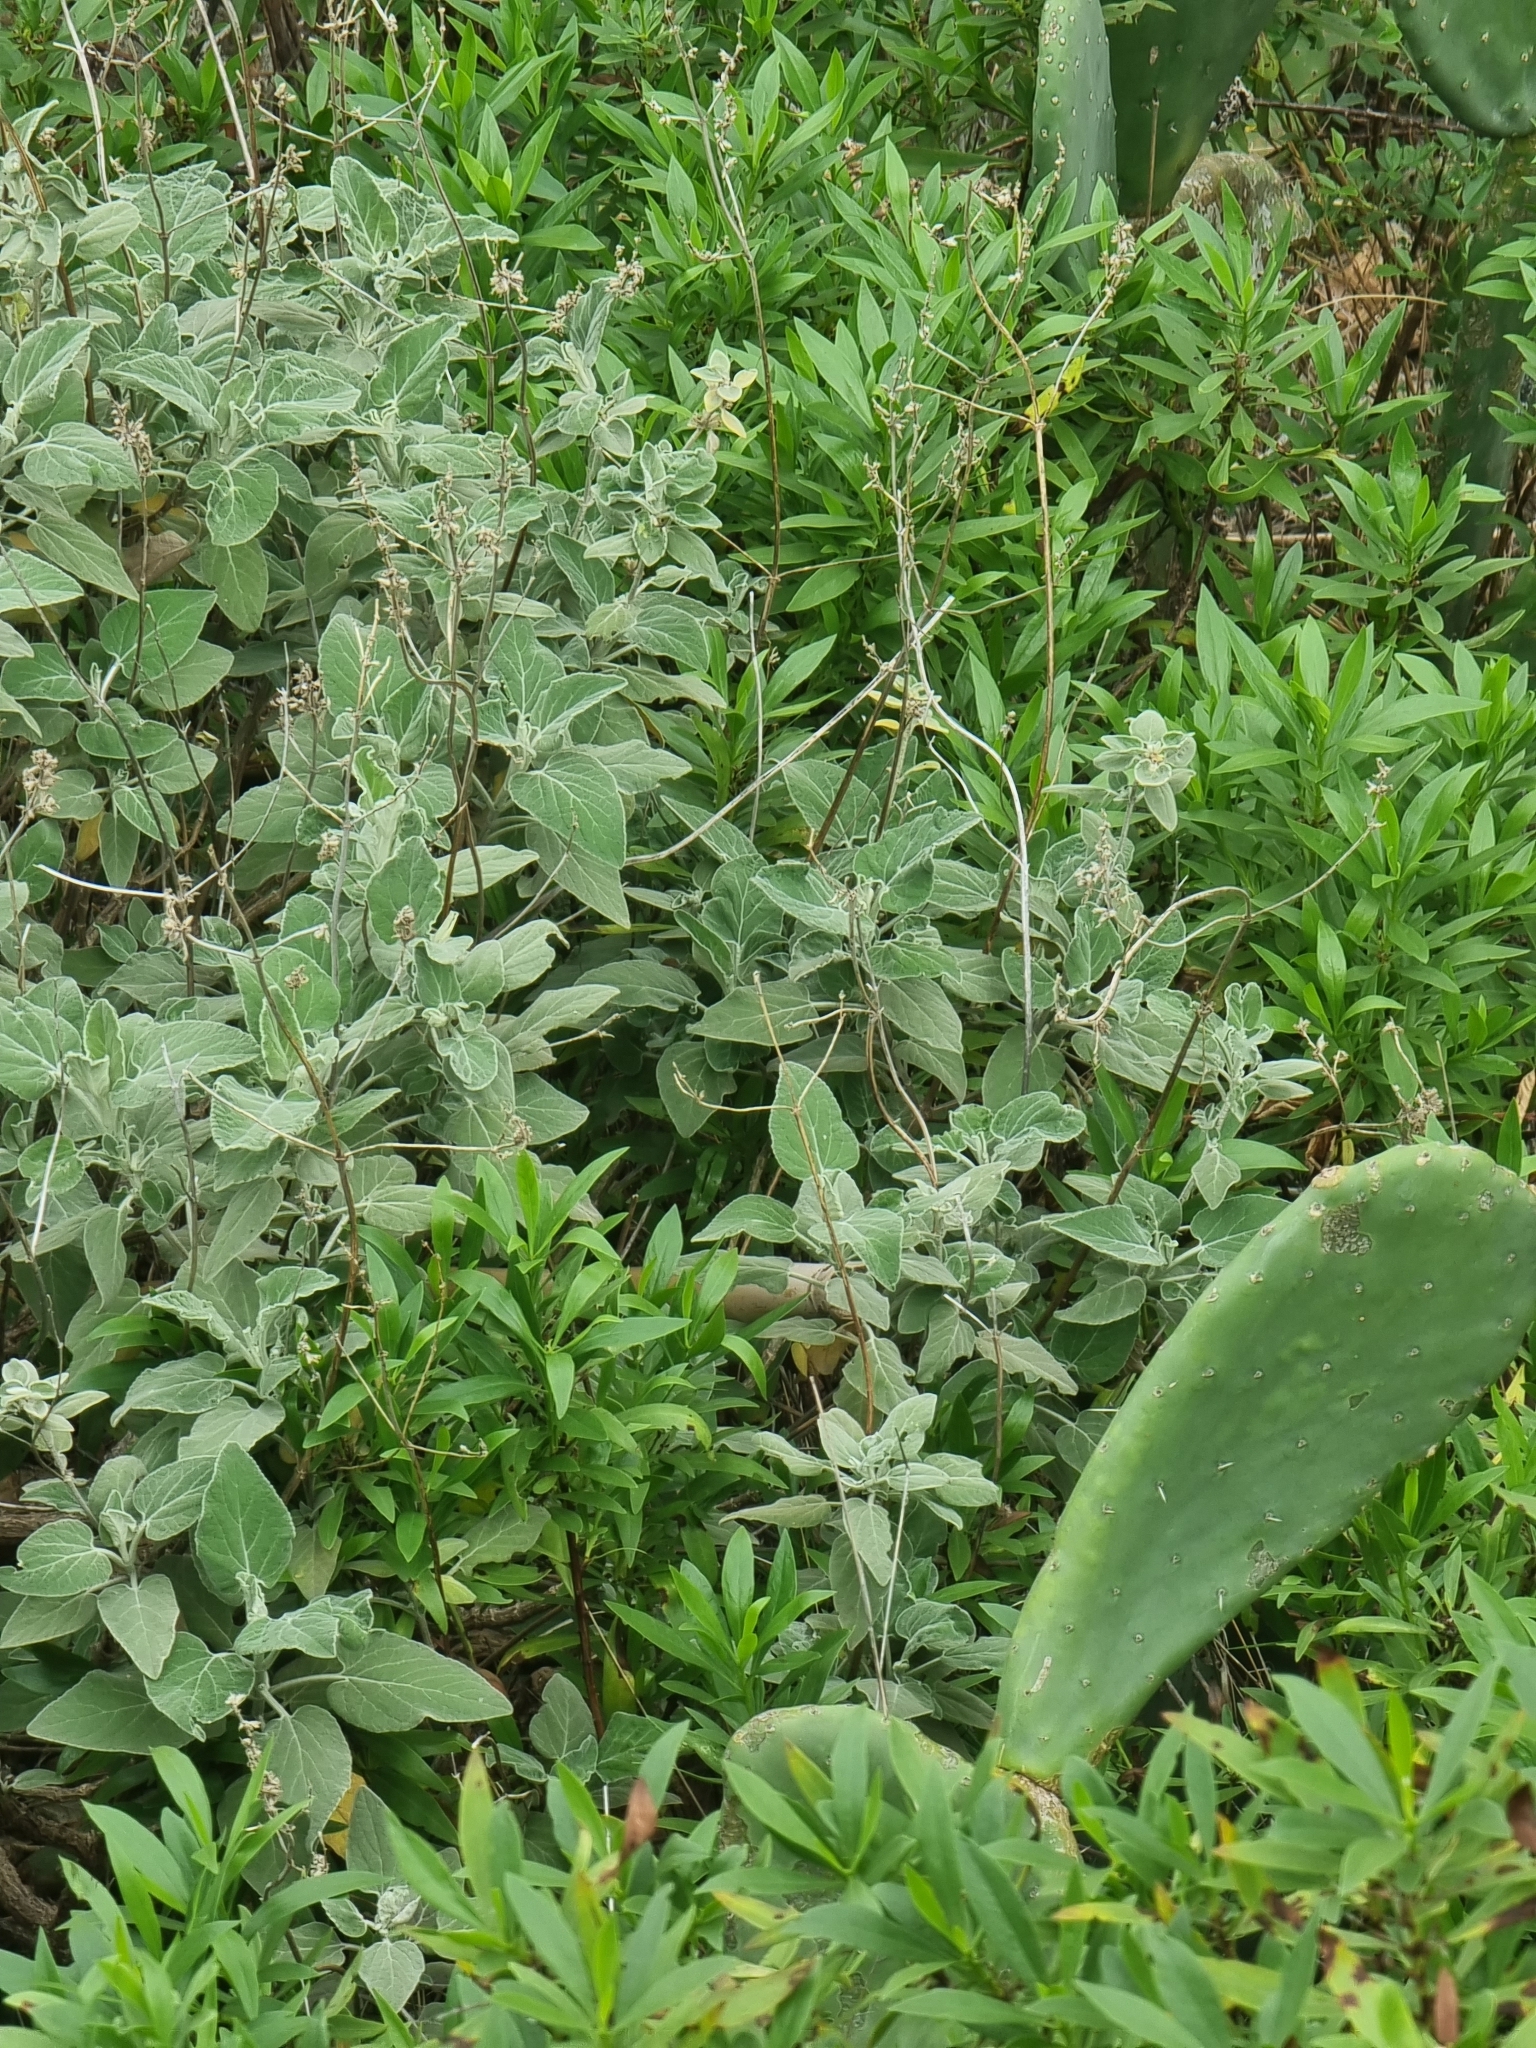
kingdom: Plantae
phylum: Tracheophyta
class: Magnoliopsida
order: Lamiales
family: Lamiaceae
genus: Sideritis
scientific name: Sideritis candicans
